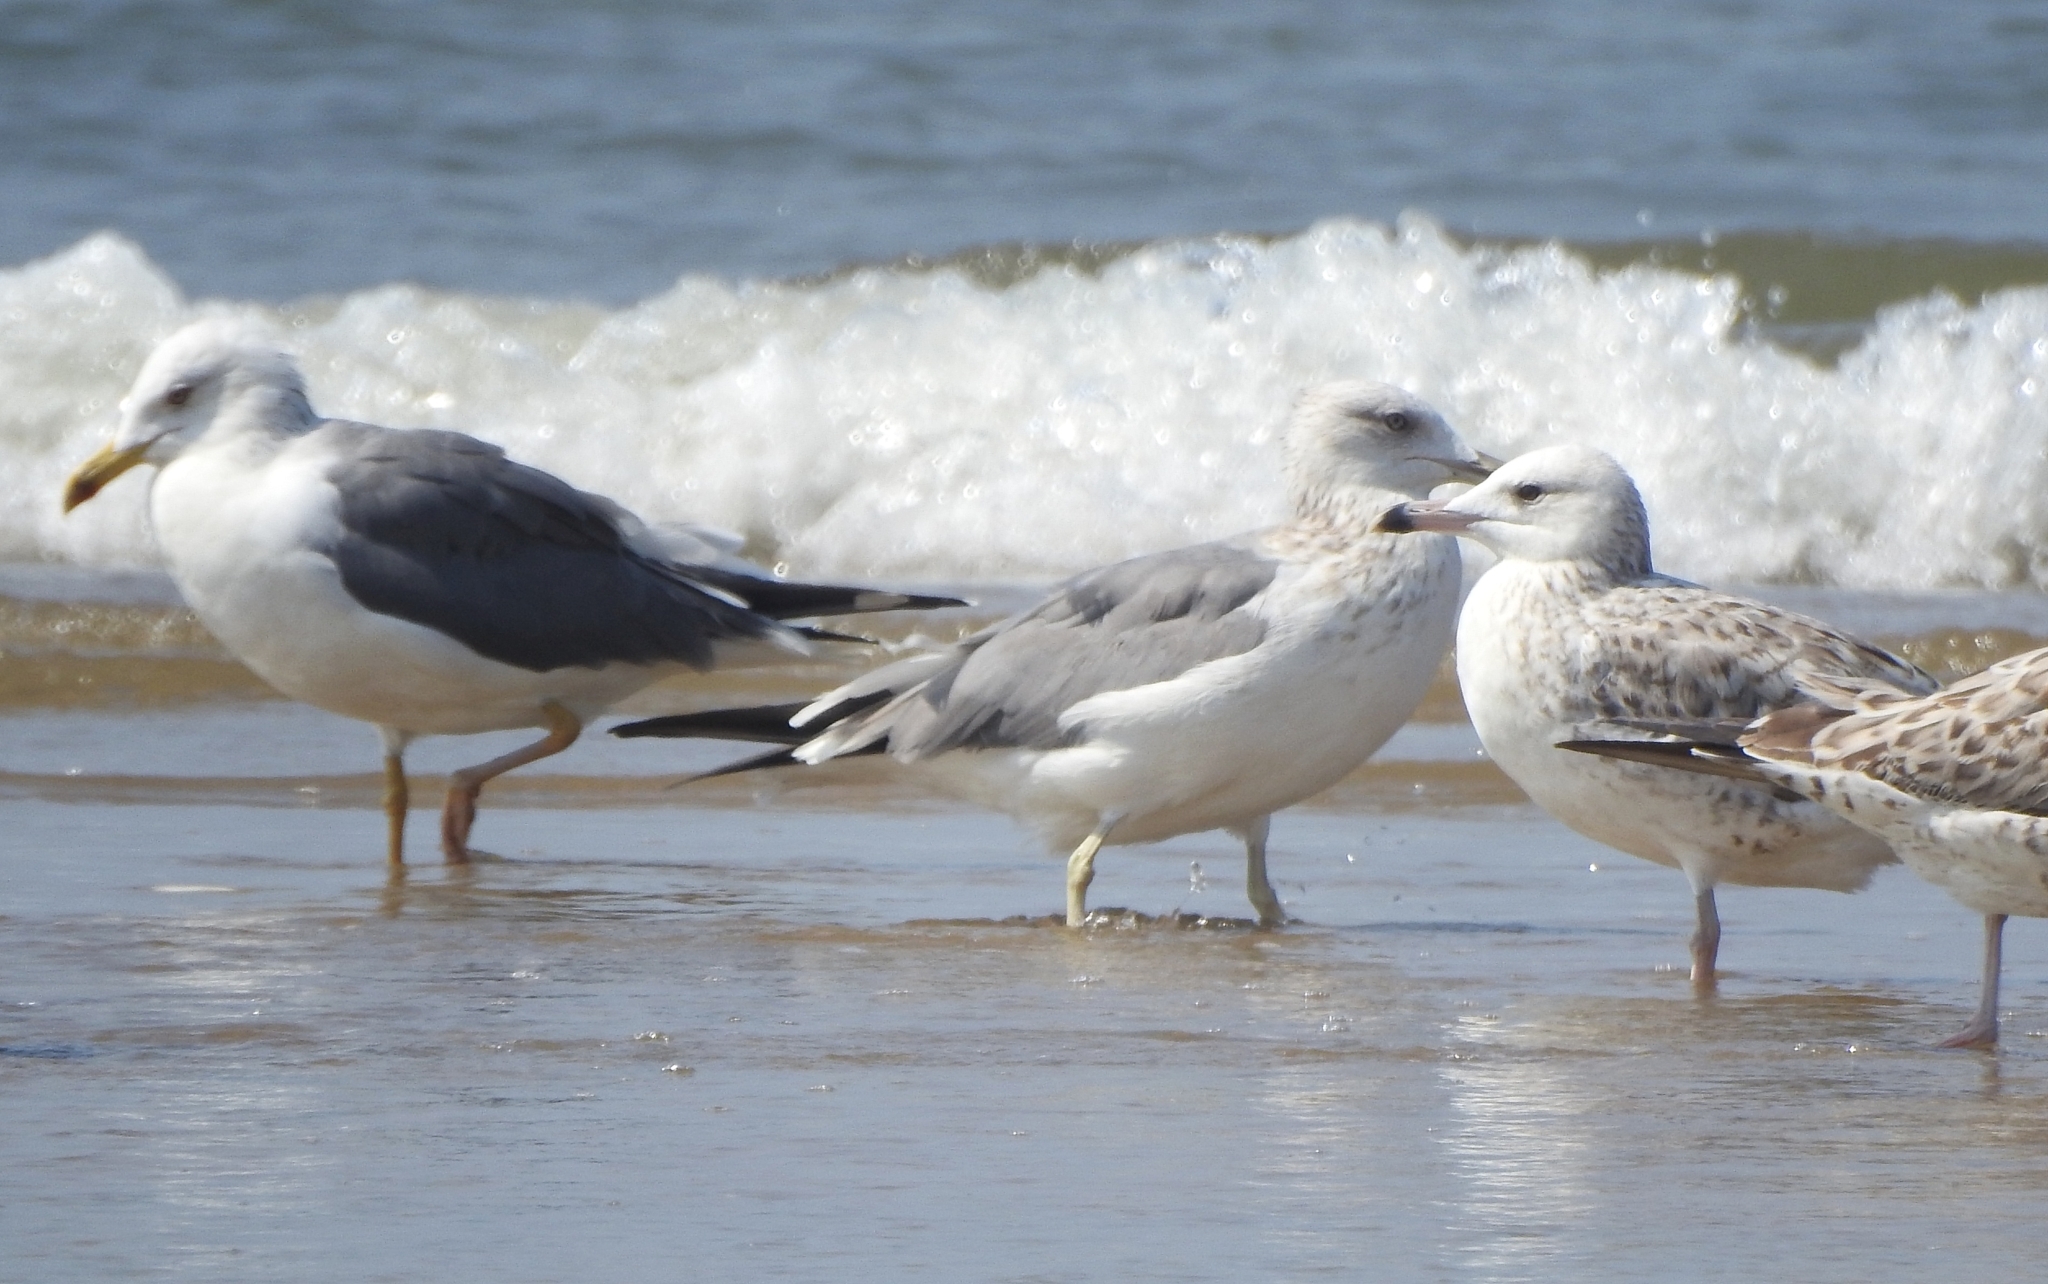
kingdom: Animalia
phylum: Chordata
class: Aves
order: Charadriiformes
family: Laridae
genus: Larus
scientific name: Larus fuscus
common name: Lesser black-backed gull
